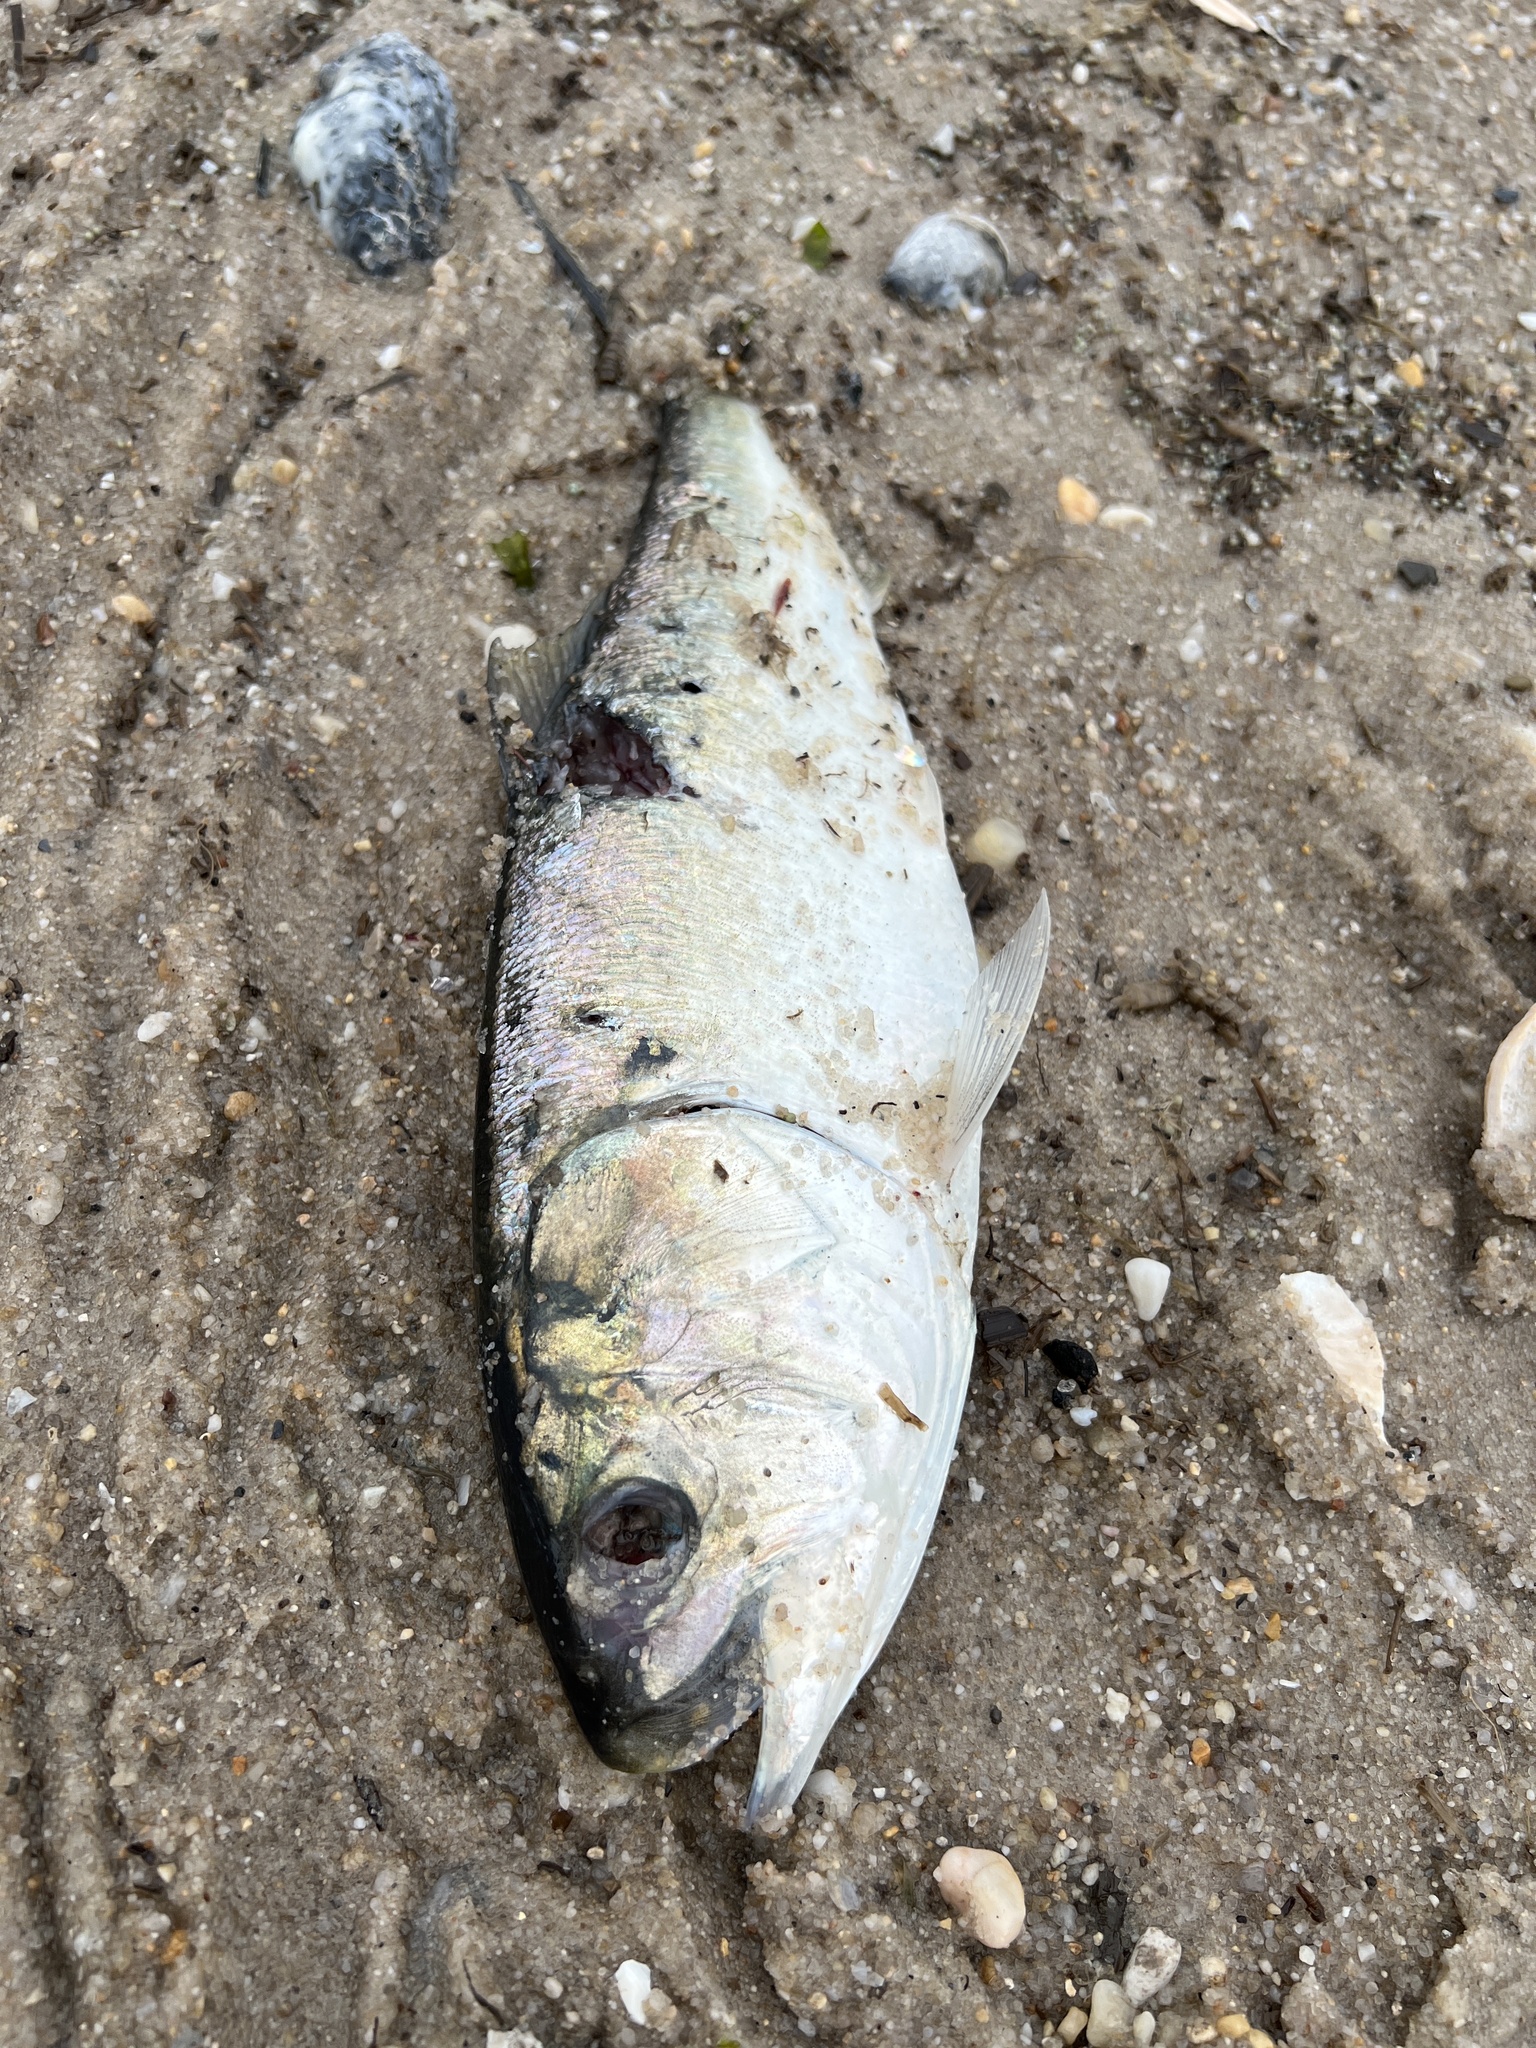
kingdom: Animalia
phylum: Chordata
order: Clupeiformes
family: Clupeidae
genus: Brevoortia
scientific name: Brevoortia tyrannus
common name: Atlantic menhaden
